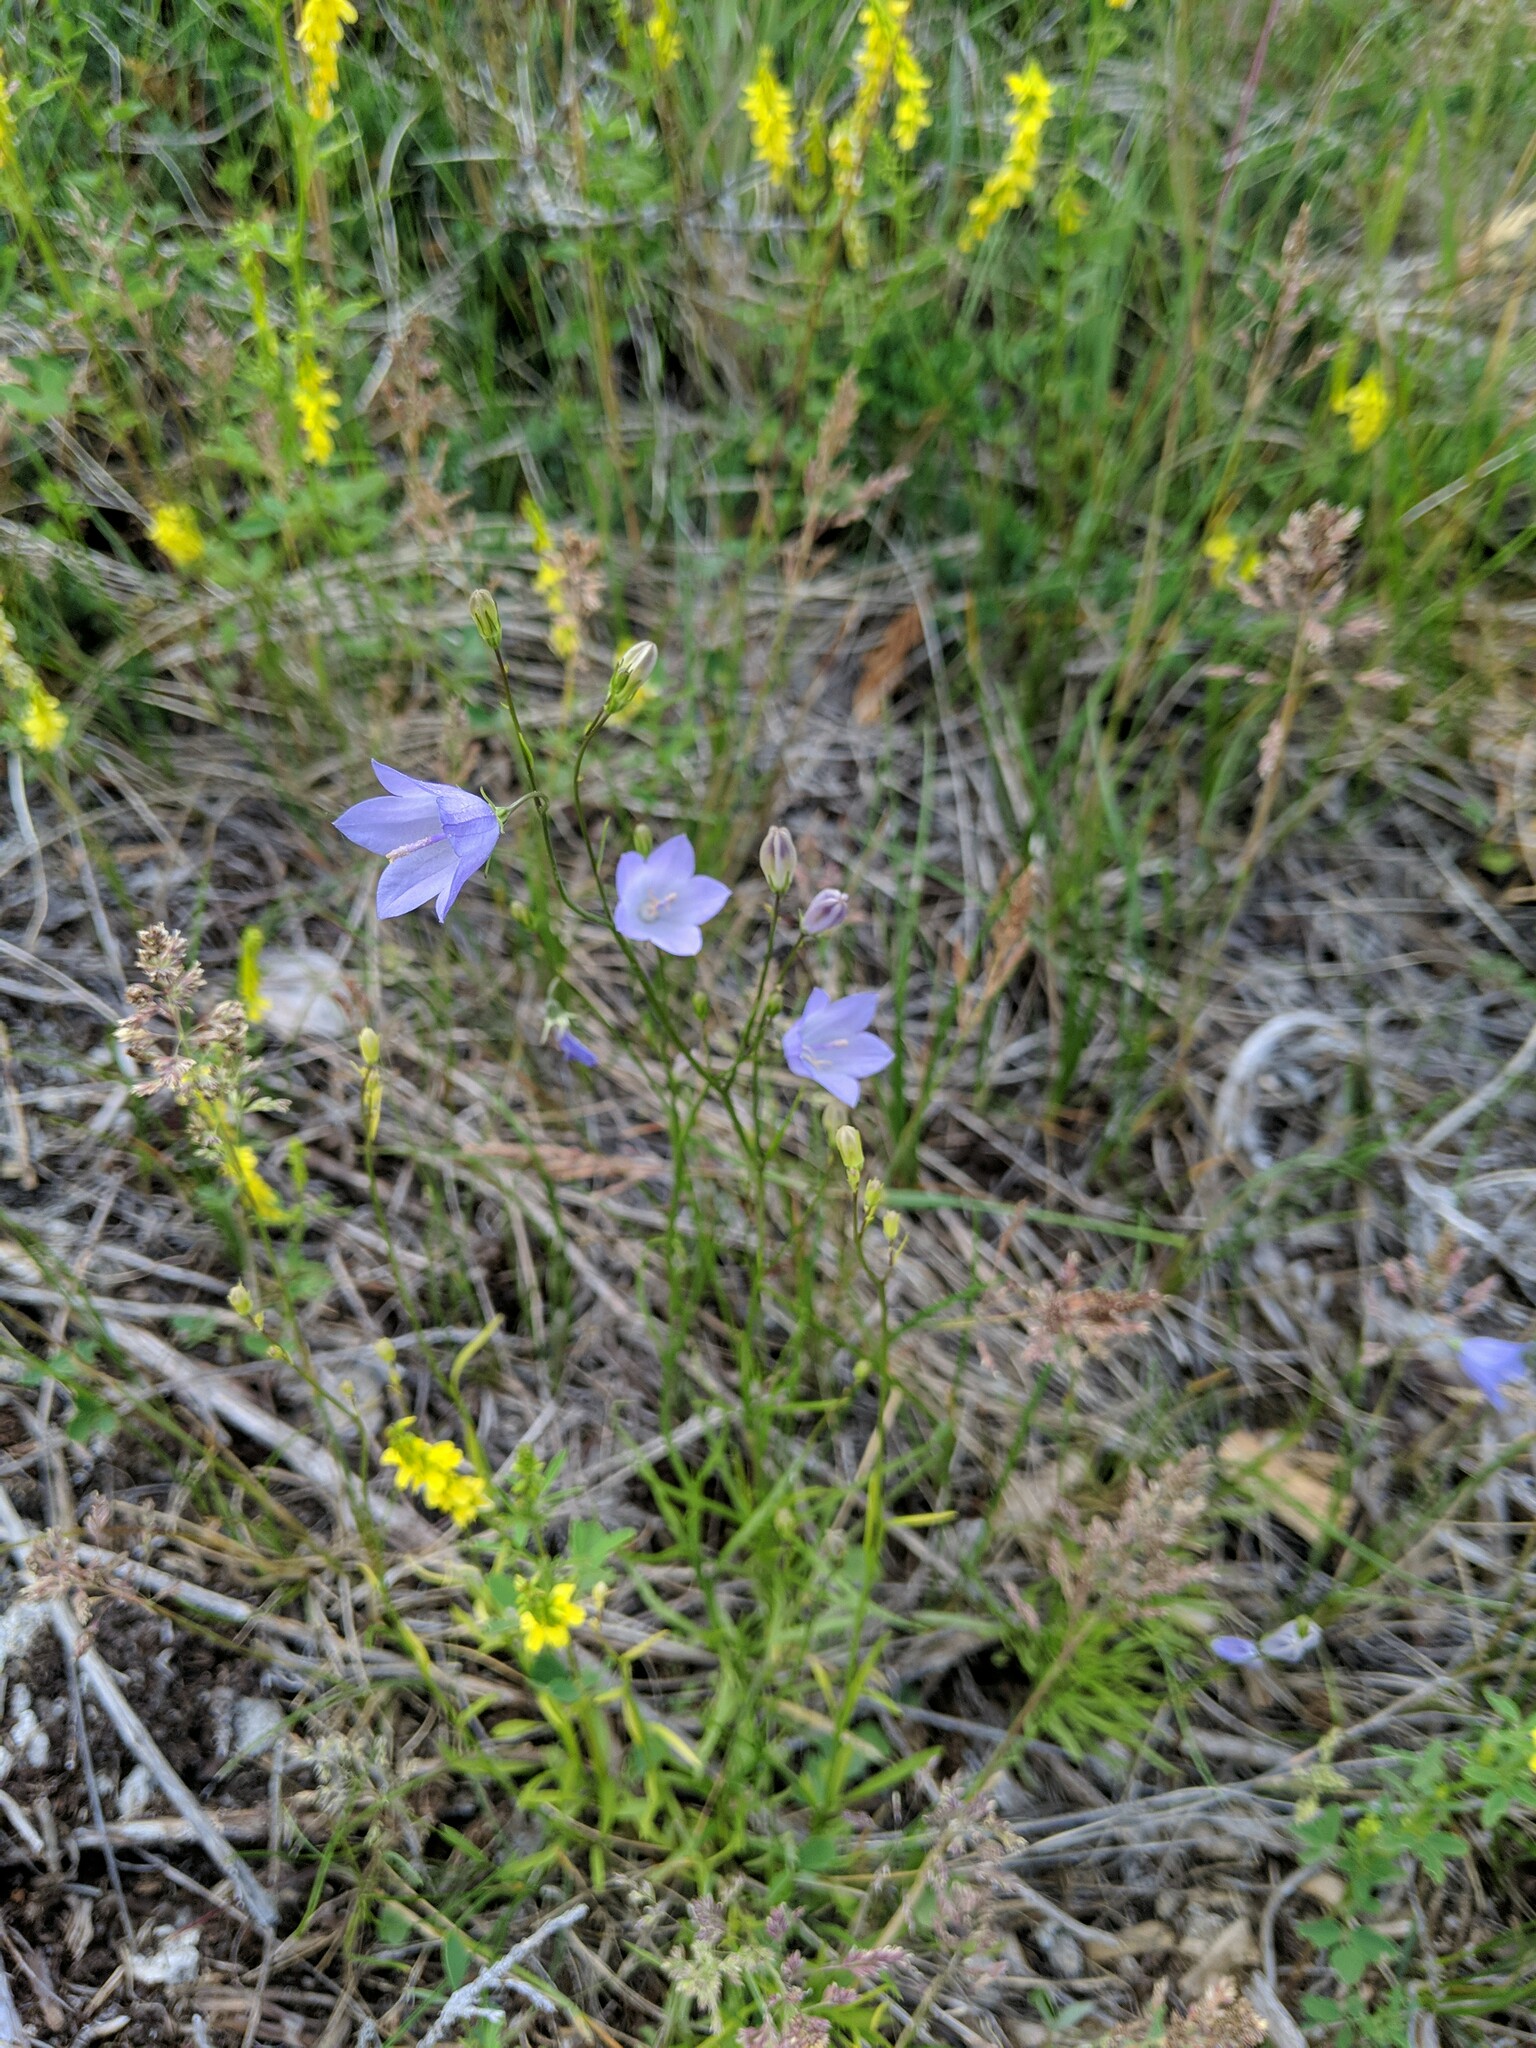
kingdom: Plantae
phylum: Tracheophyta
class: Magnoliopsida
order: Asterales
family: Campanulaceae
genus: Campanula
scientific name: Campanula alaskana
